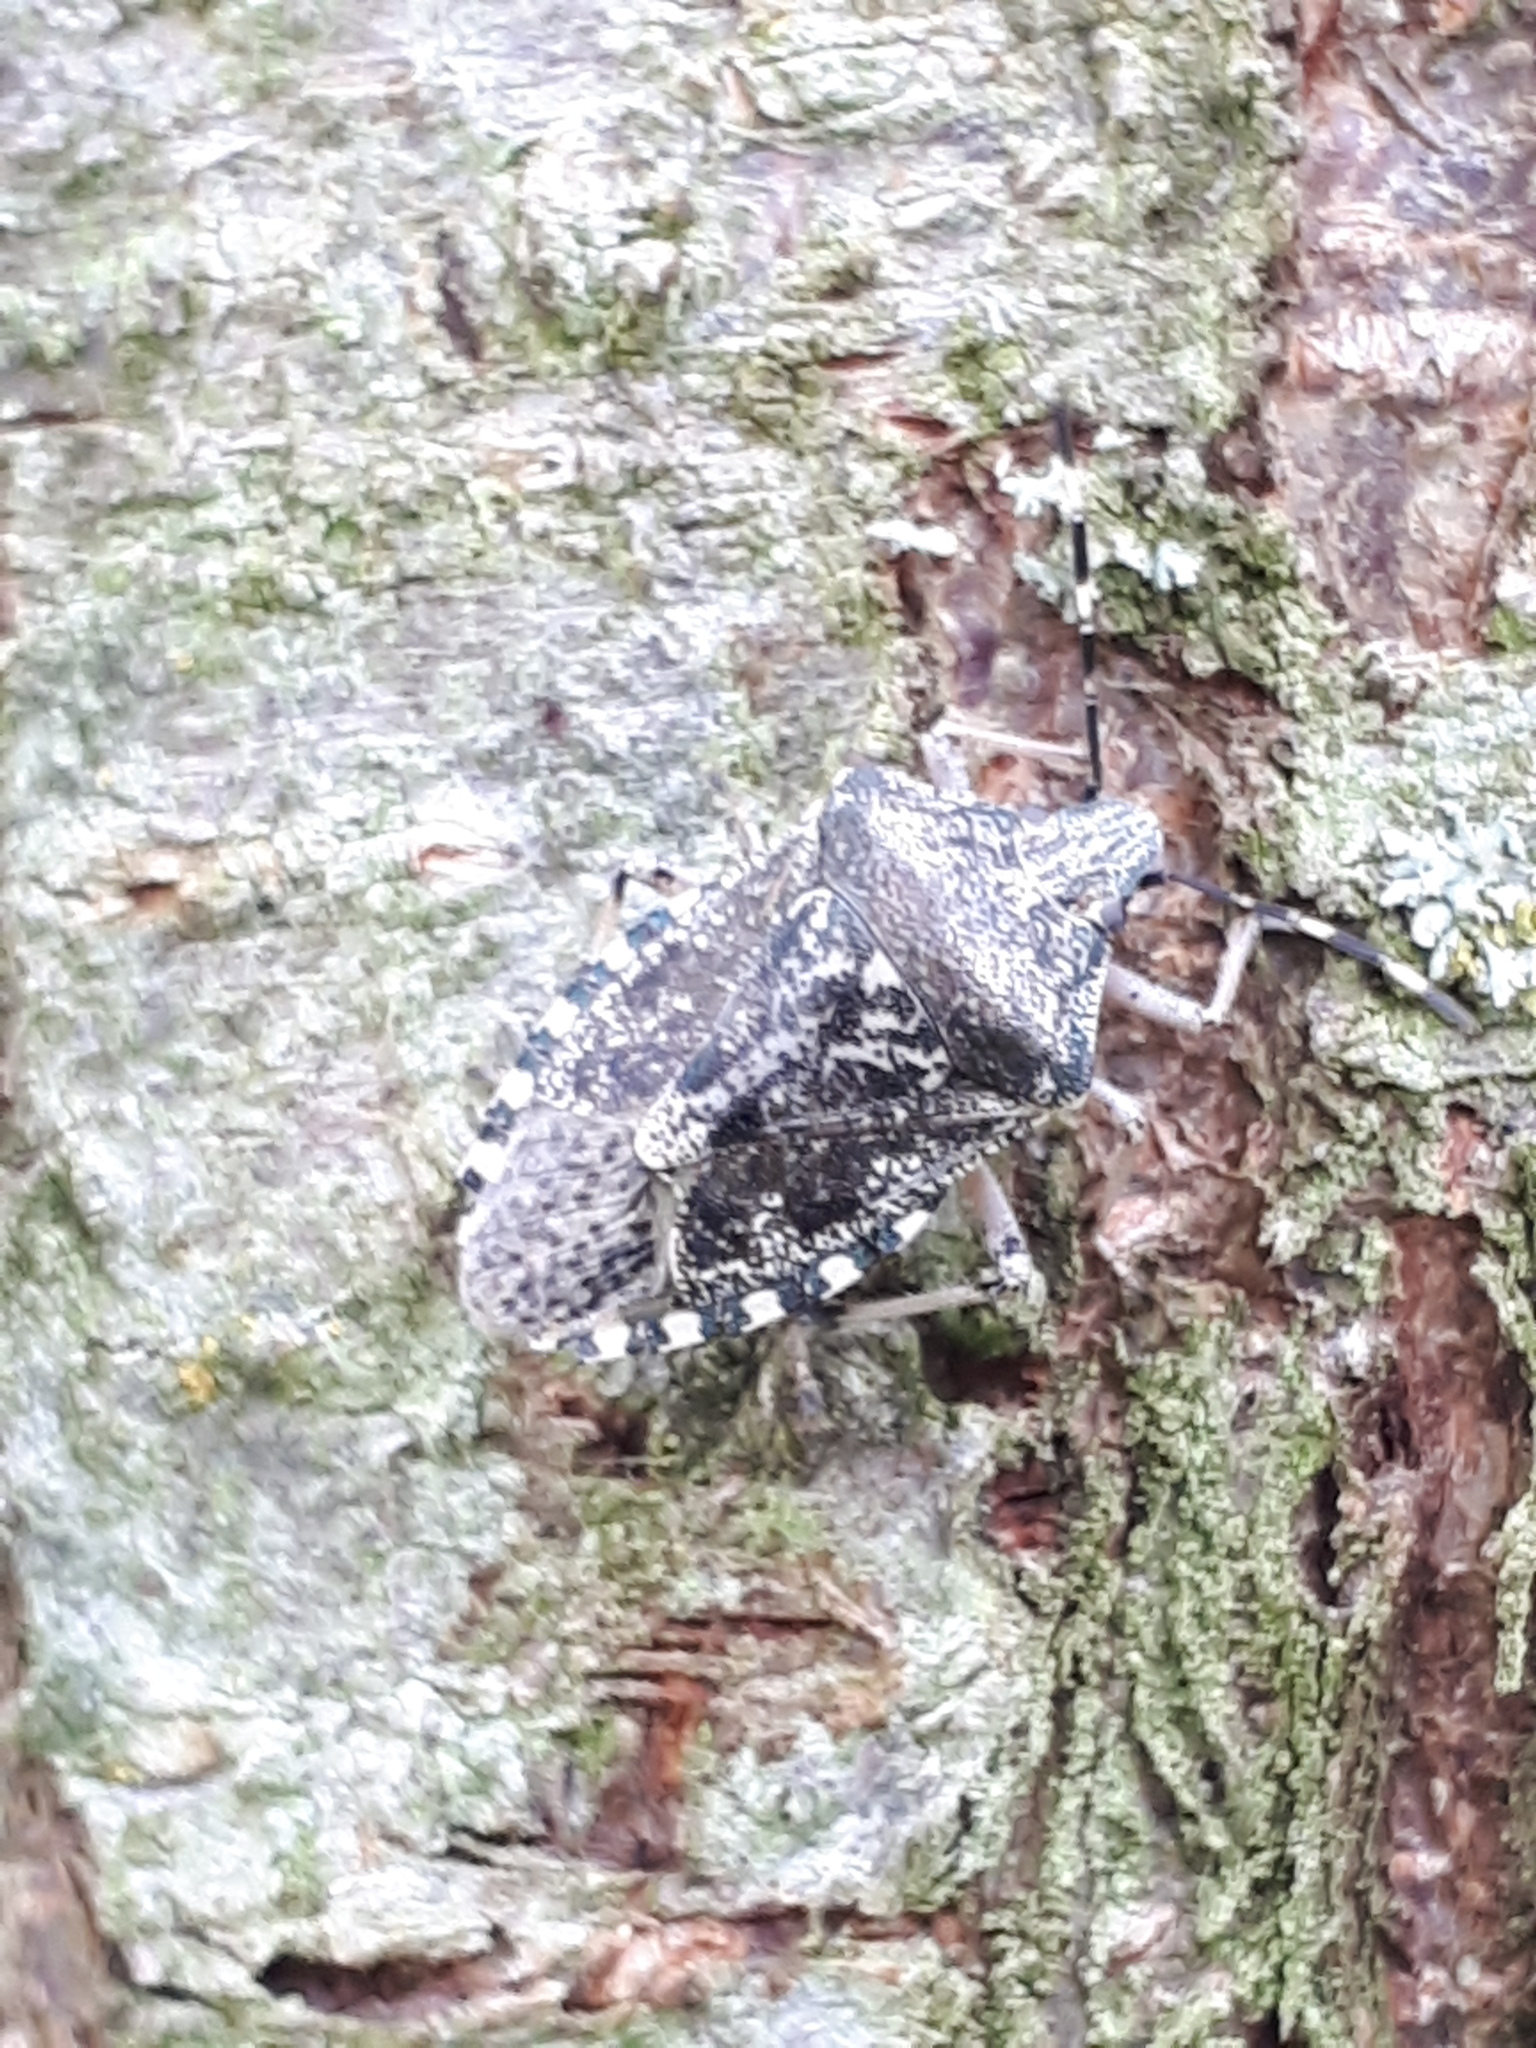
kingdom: Animalia
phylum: Arthropoda
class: Insecta
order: Hemiptera
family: Pentatomidae
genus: Rhaphigaster
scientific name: Rhaphigaster nebulosa
